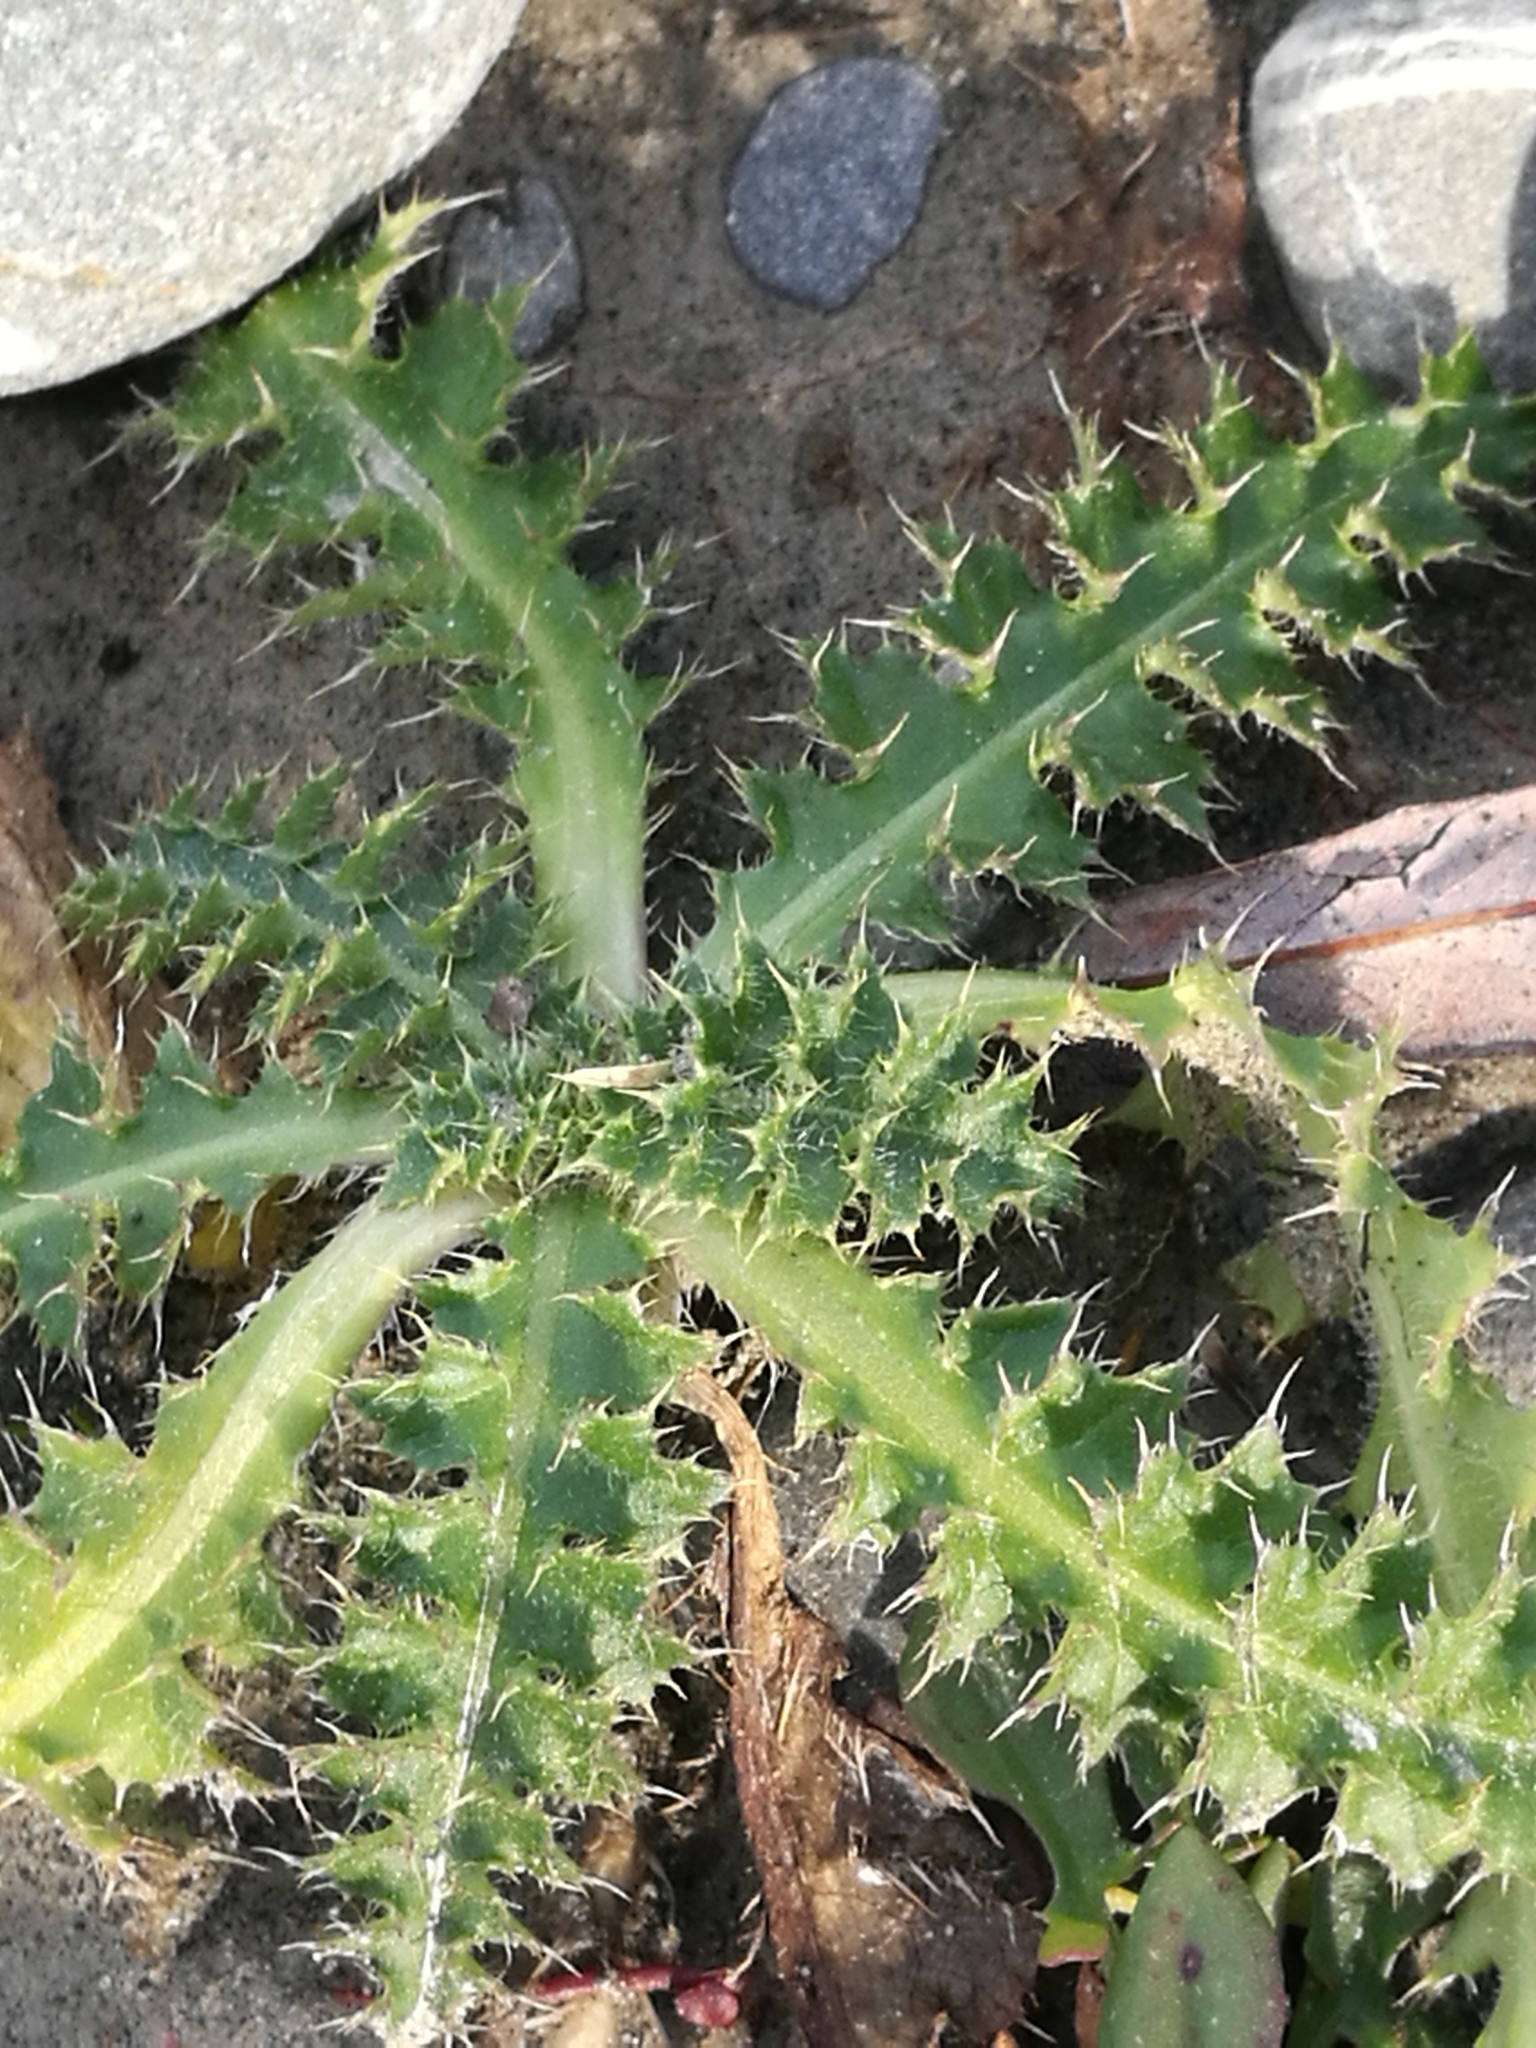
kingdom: Plantae
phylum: Tracheophyta
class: Magnoliopsida
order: Asterales
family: Asteraceae
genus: Cirsium
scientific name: Cirsium arvense
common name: Creeping thistle
